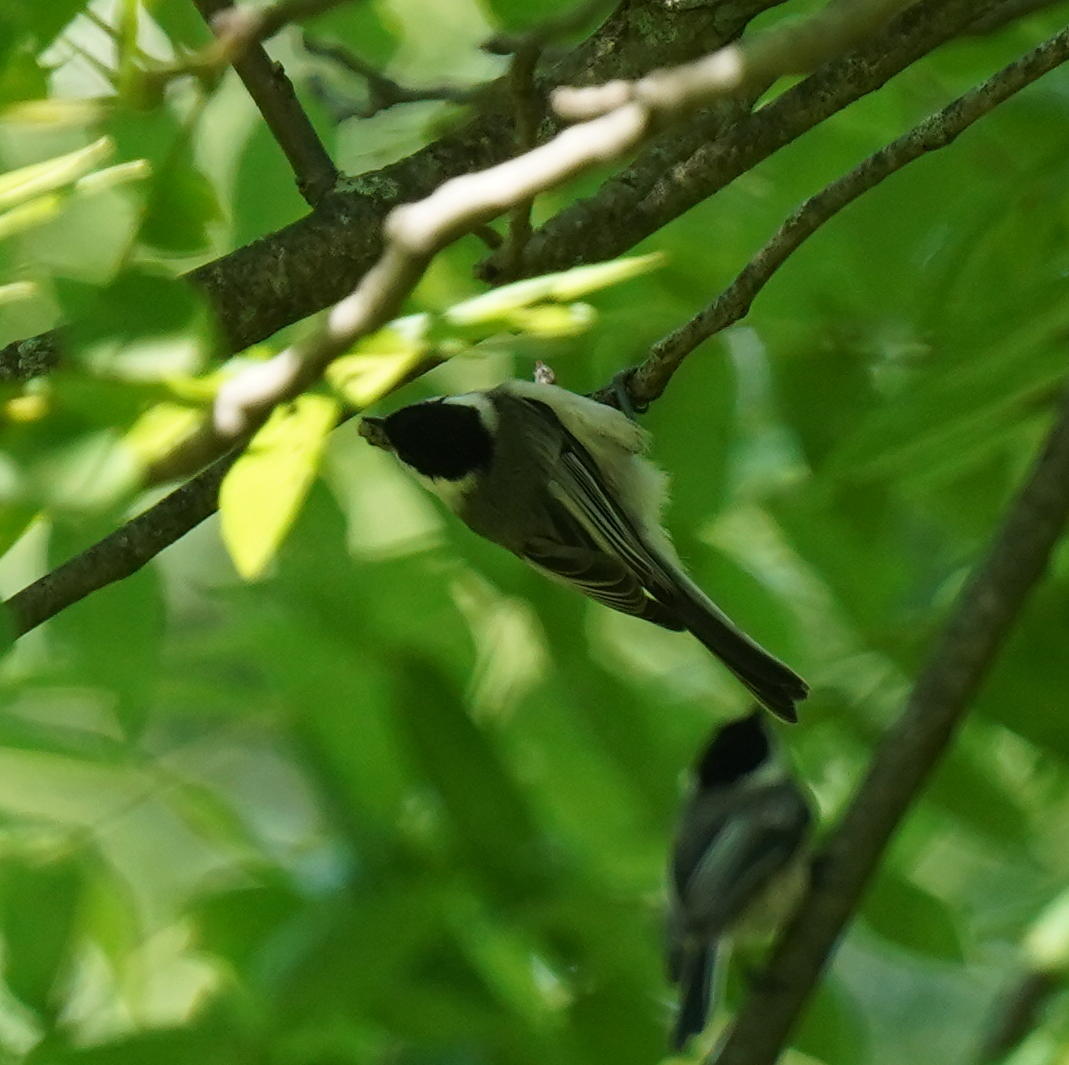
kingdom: Animalia
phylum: Chordata
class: Aves
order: Passeriformes
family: Paridae
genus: Poecile
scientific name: Poecile atricapillus
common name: Black-capped chickadee
